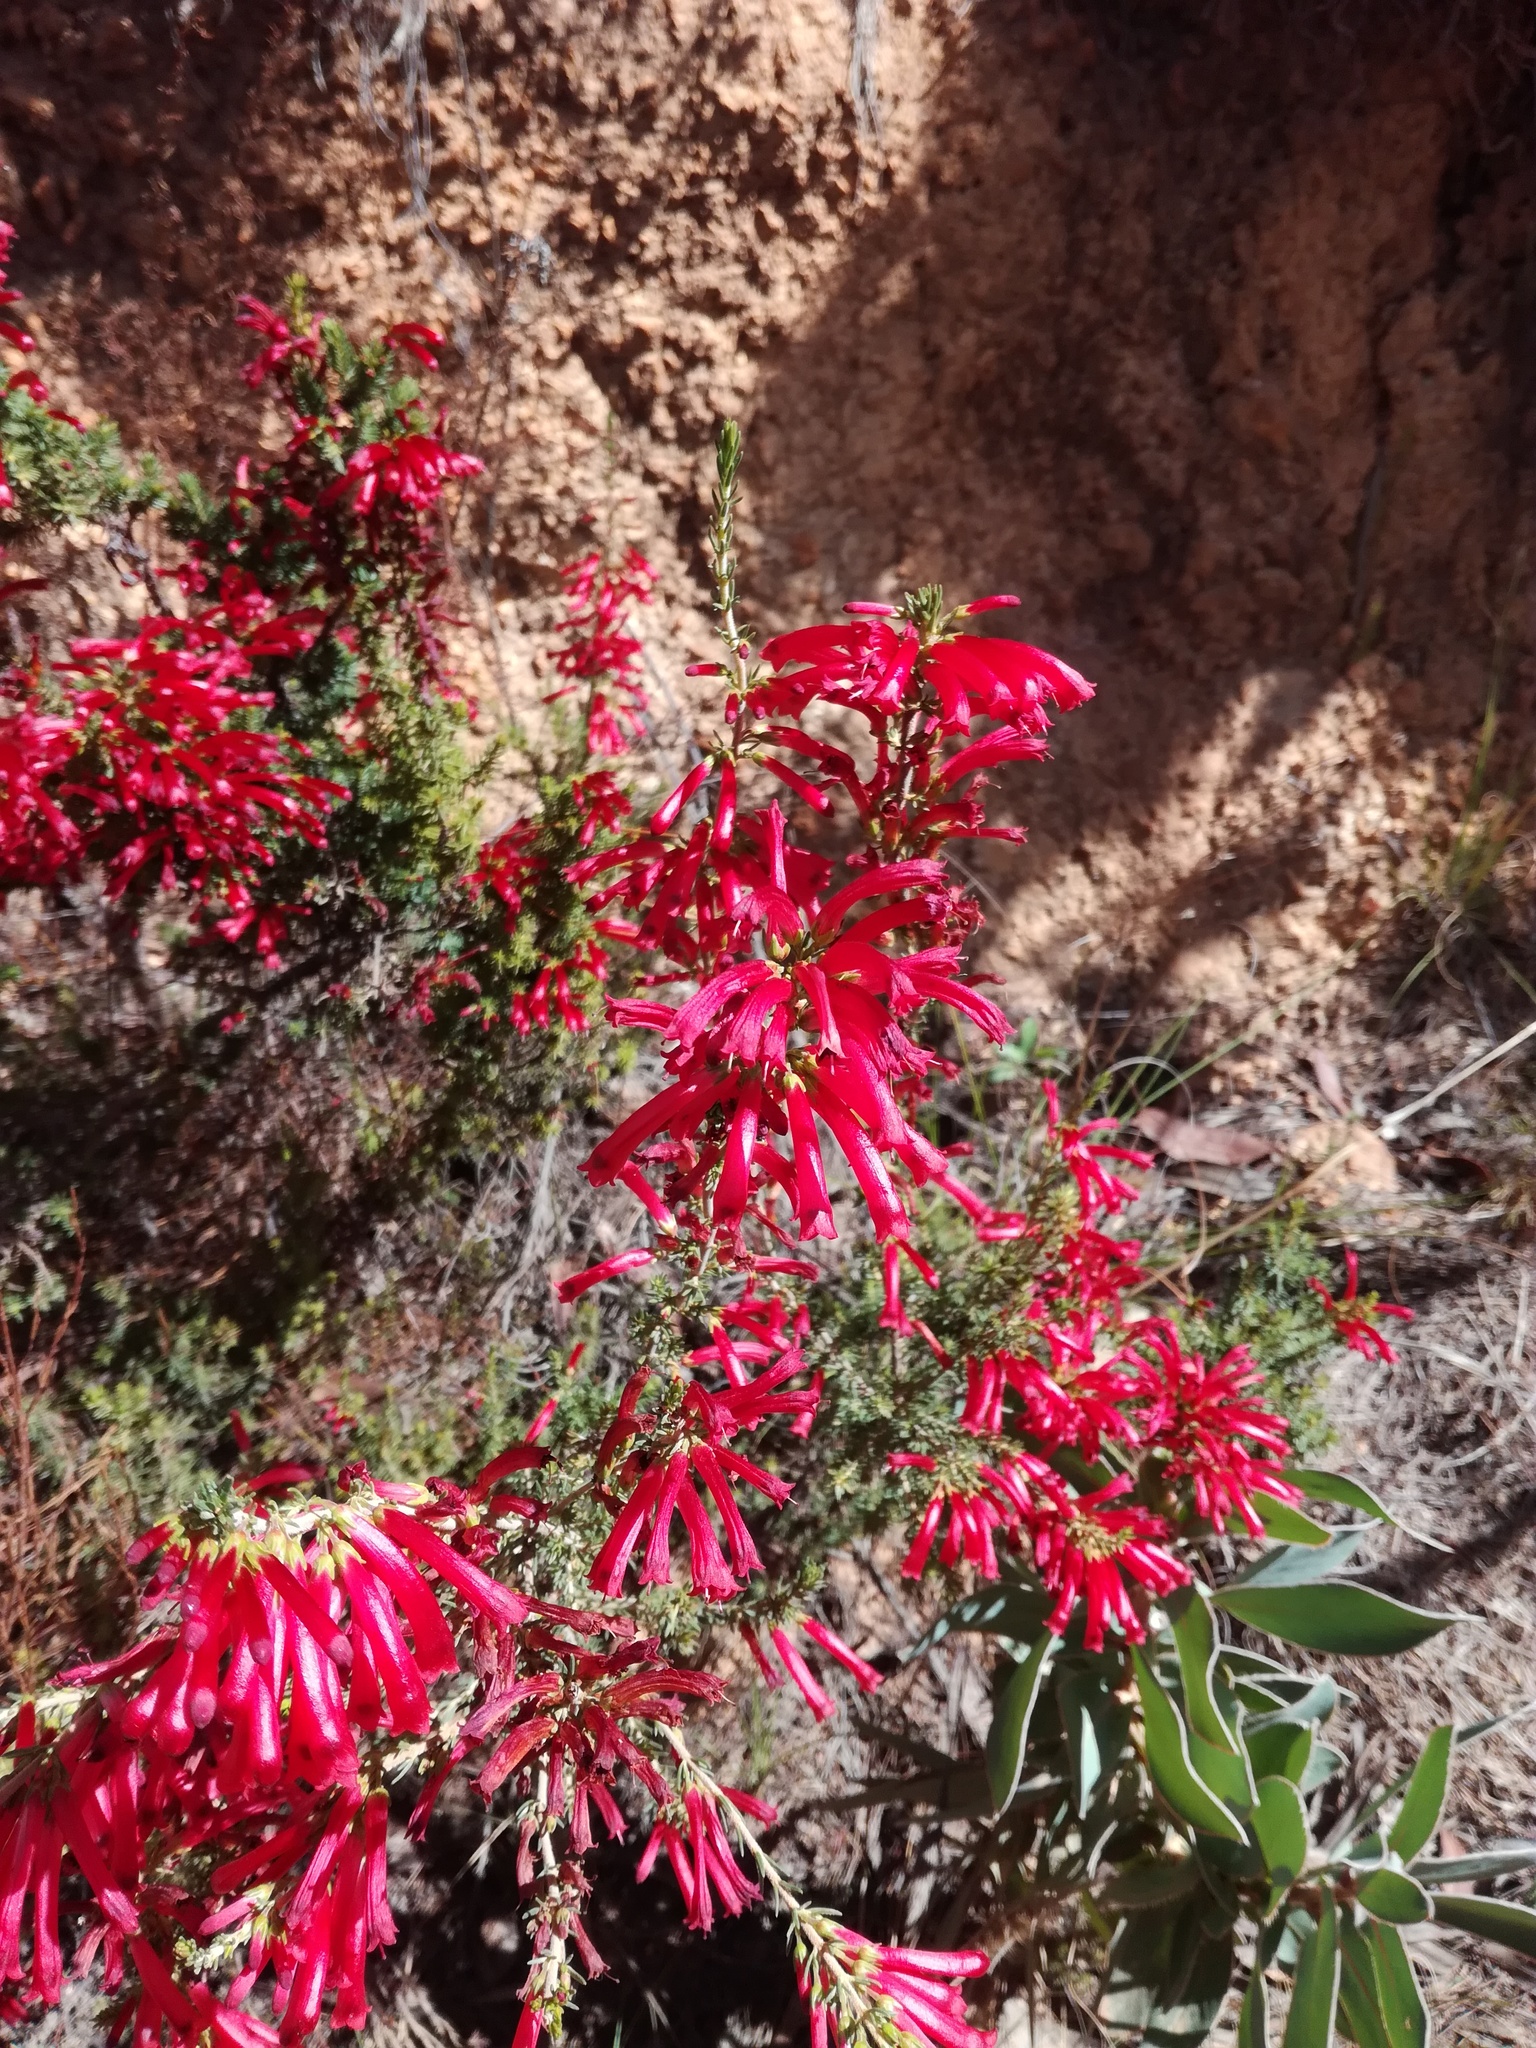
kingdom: Plantae
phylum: Tracheophyta
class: Magnoliopsida
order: Ericales
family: Ericaceae
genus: Erica
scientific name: Erica cruenta
